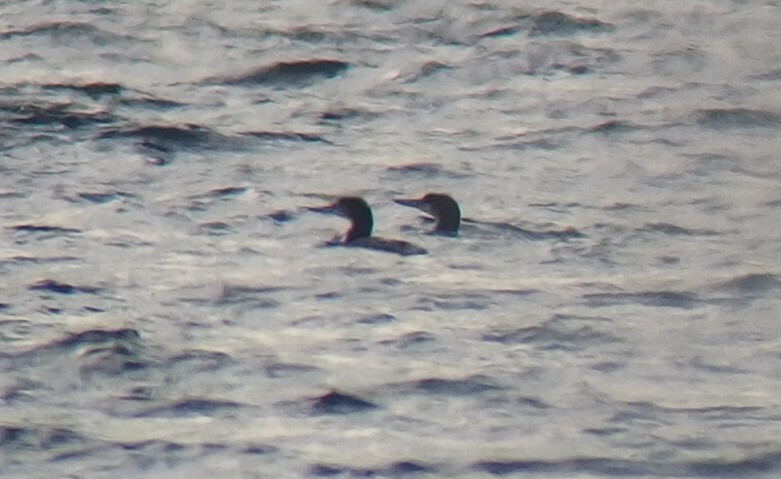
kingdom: Animalia
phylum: Chordata
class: Aves
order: Gaviiformes
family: Gaviidae
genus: Gavia
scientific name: Gavia arctica
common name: Black-throated loon
